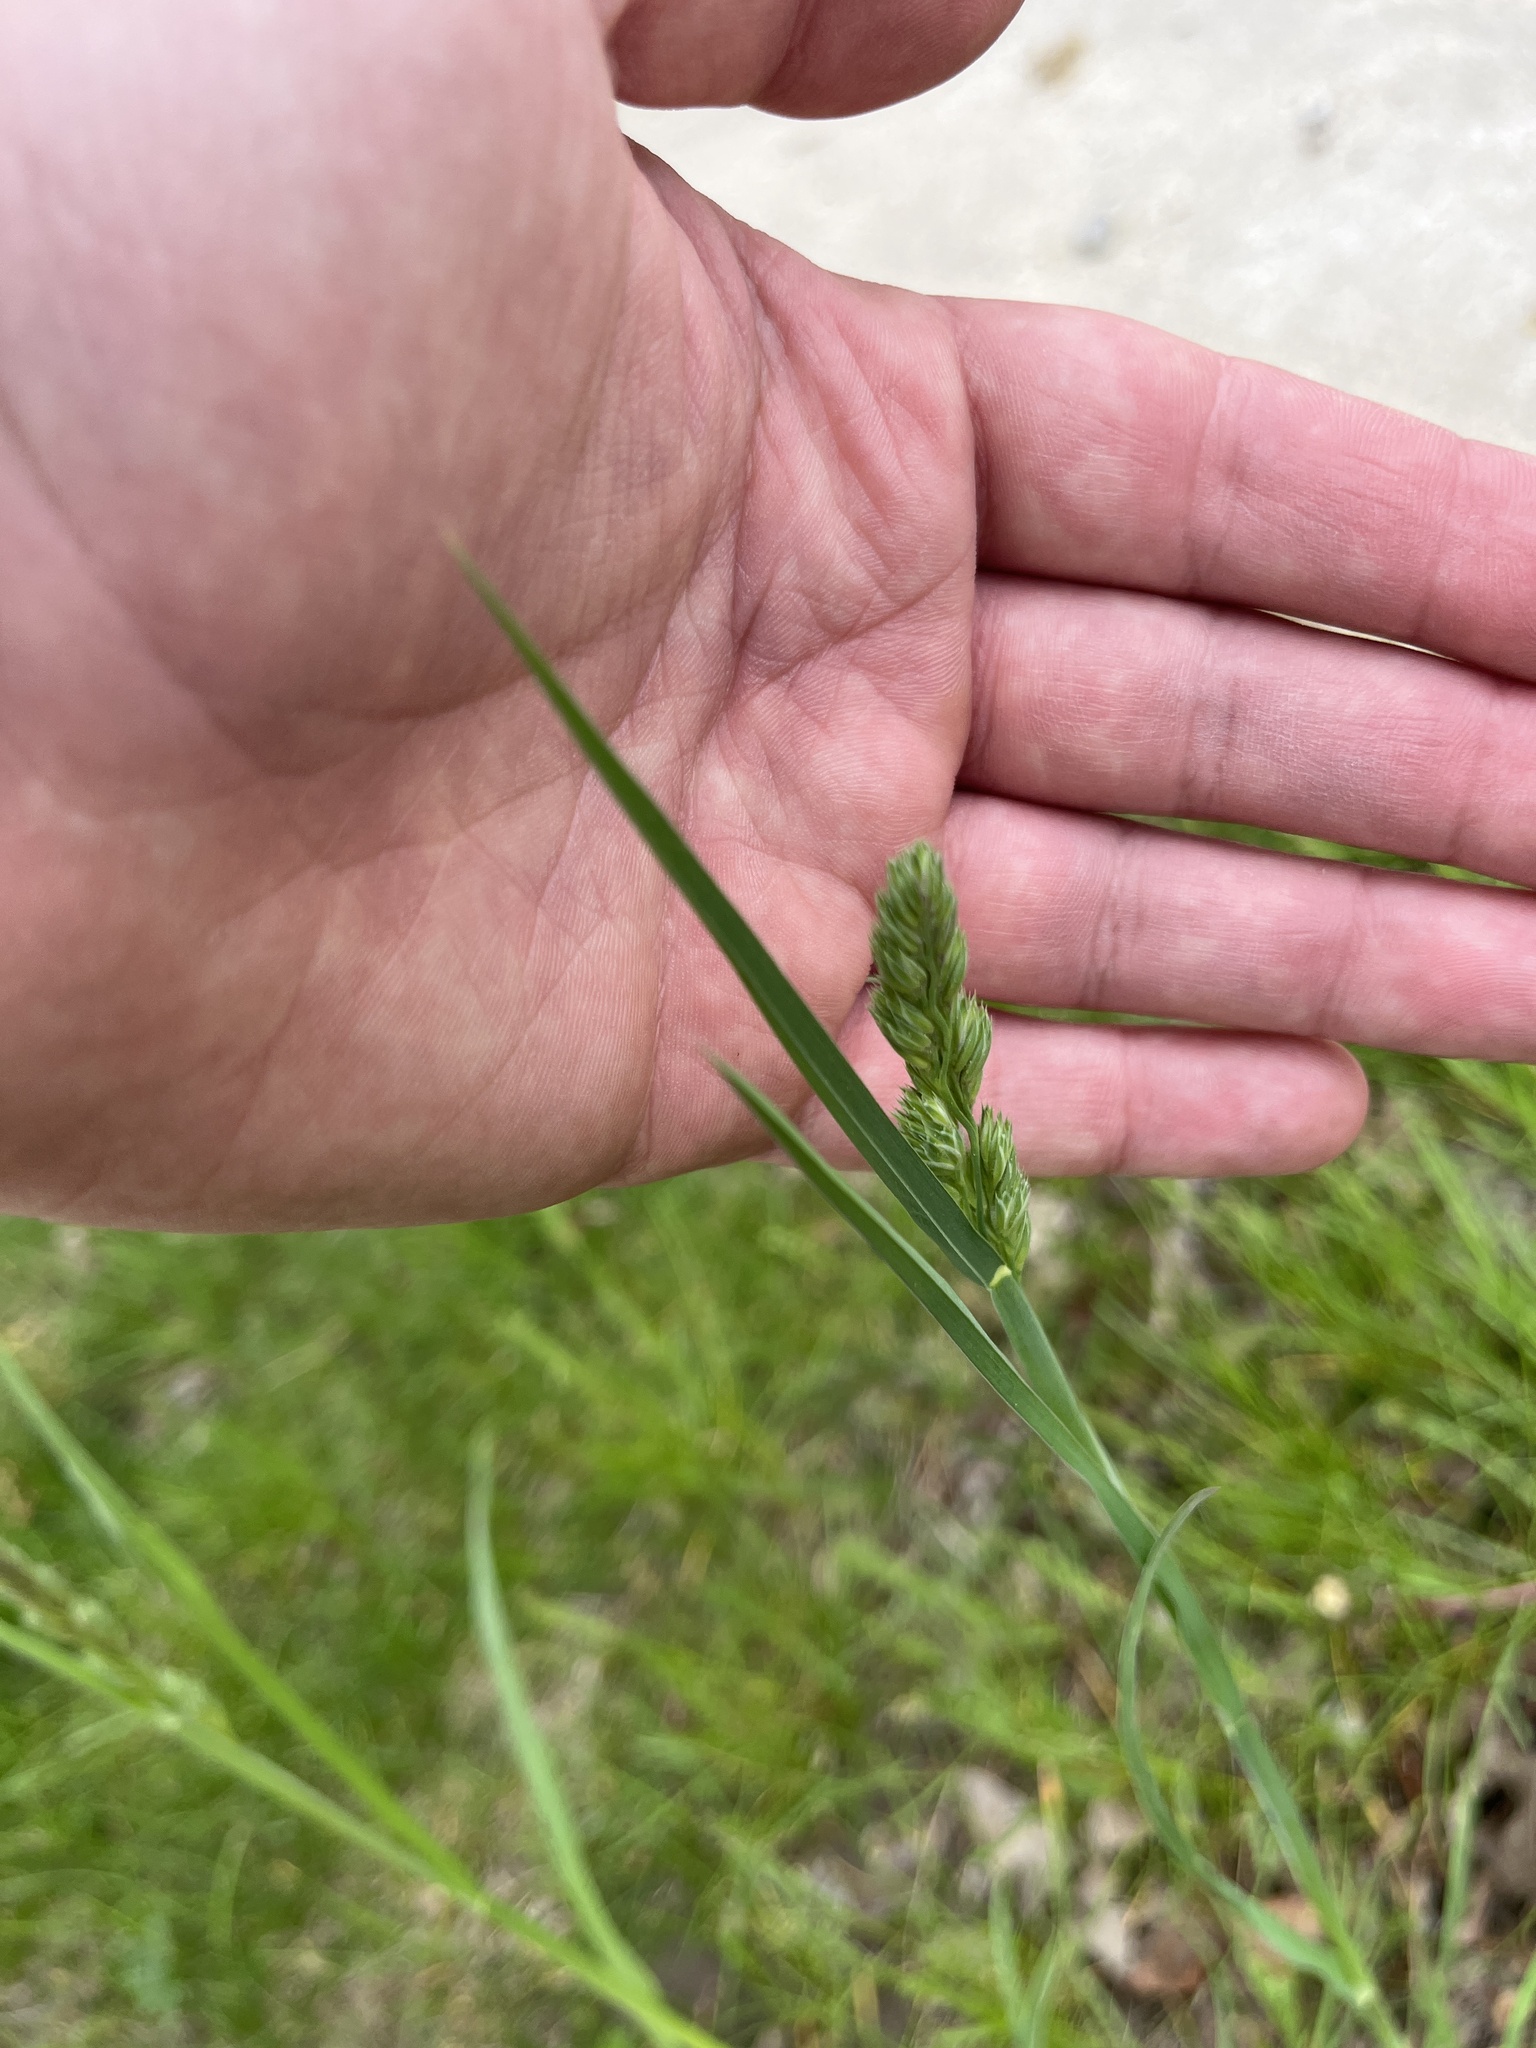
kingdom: Plantae
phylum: Tracheophyta
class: Liliopsida
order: Poales
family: Poaceae
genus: Dactylis
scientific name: Dactylis glomerata
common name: Orchardgrass
